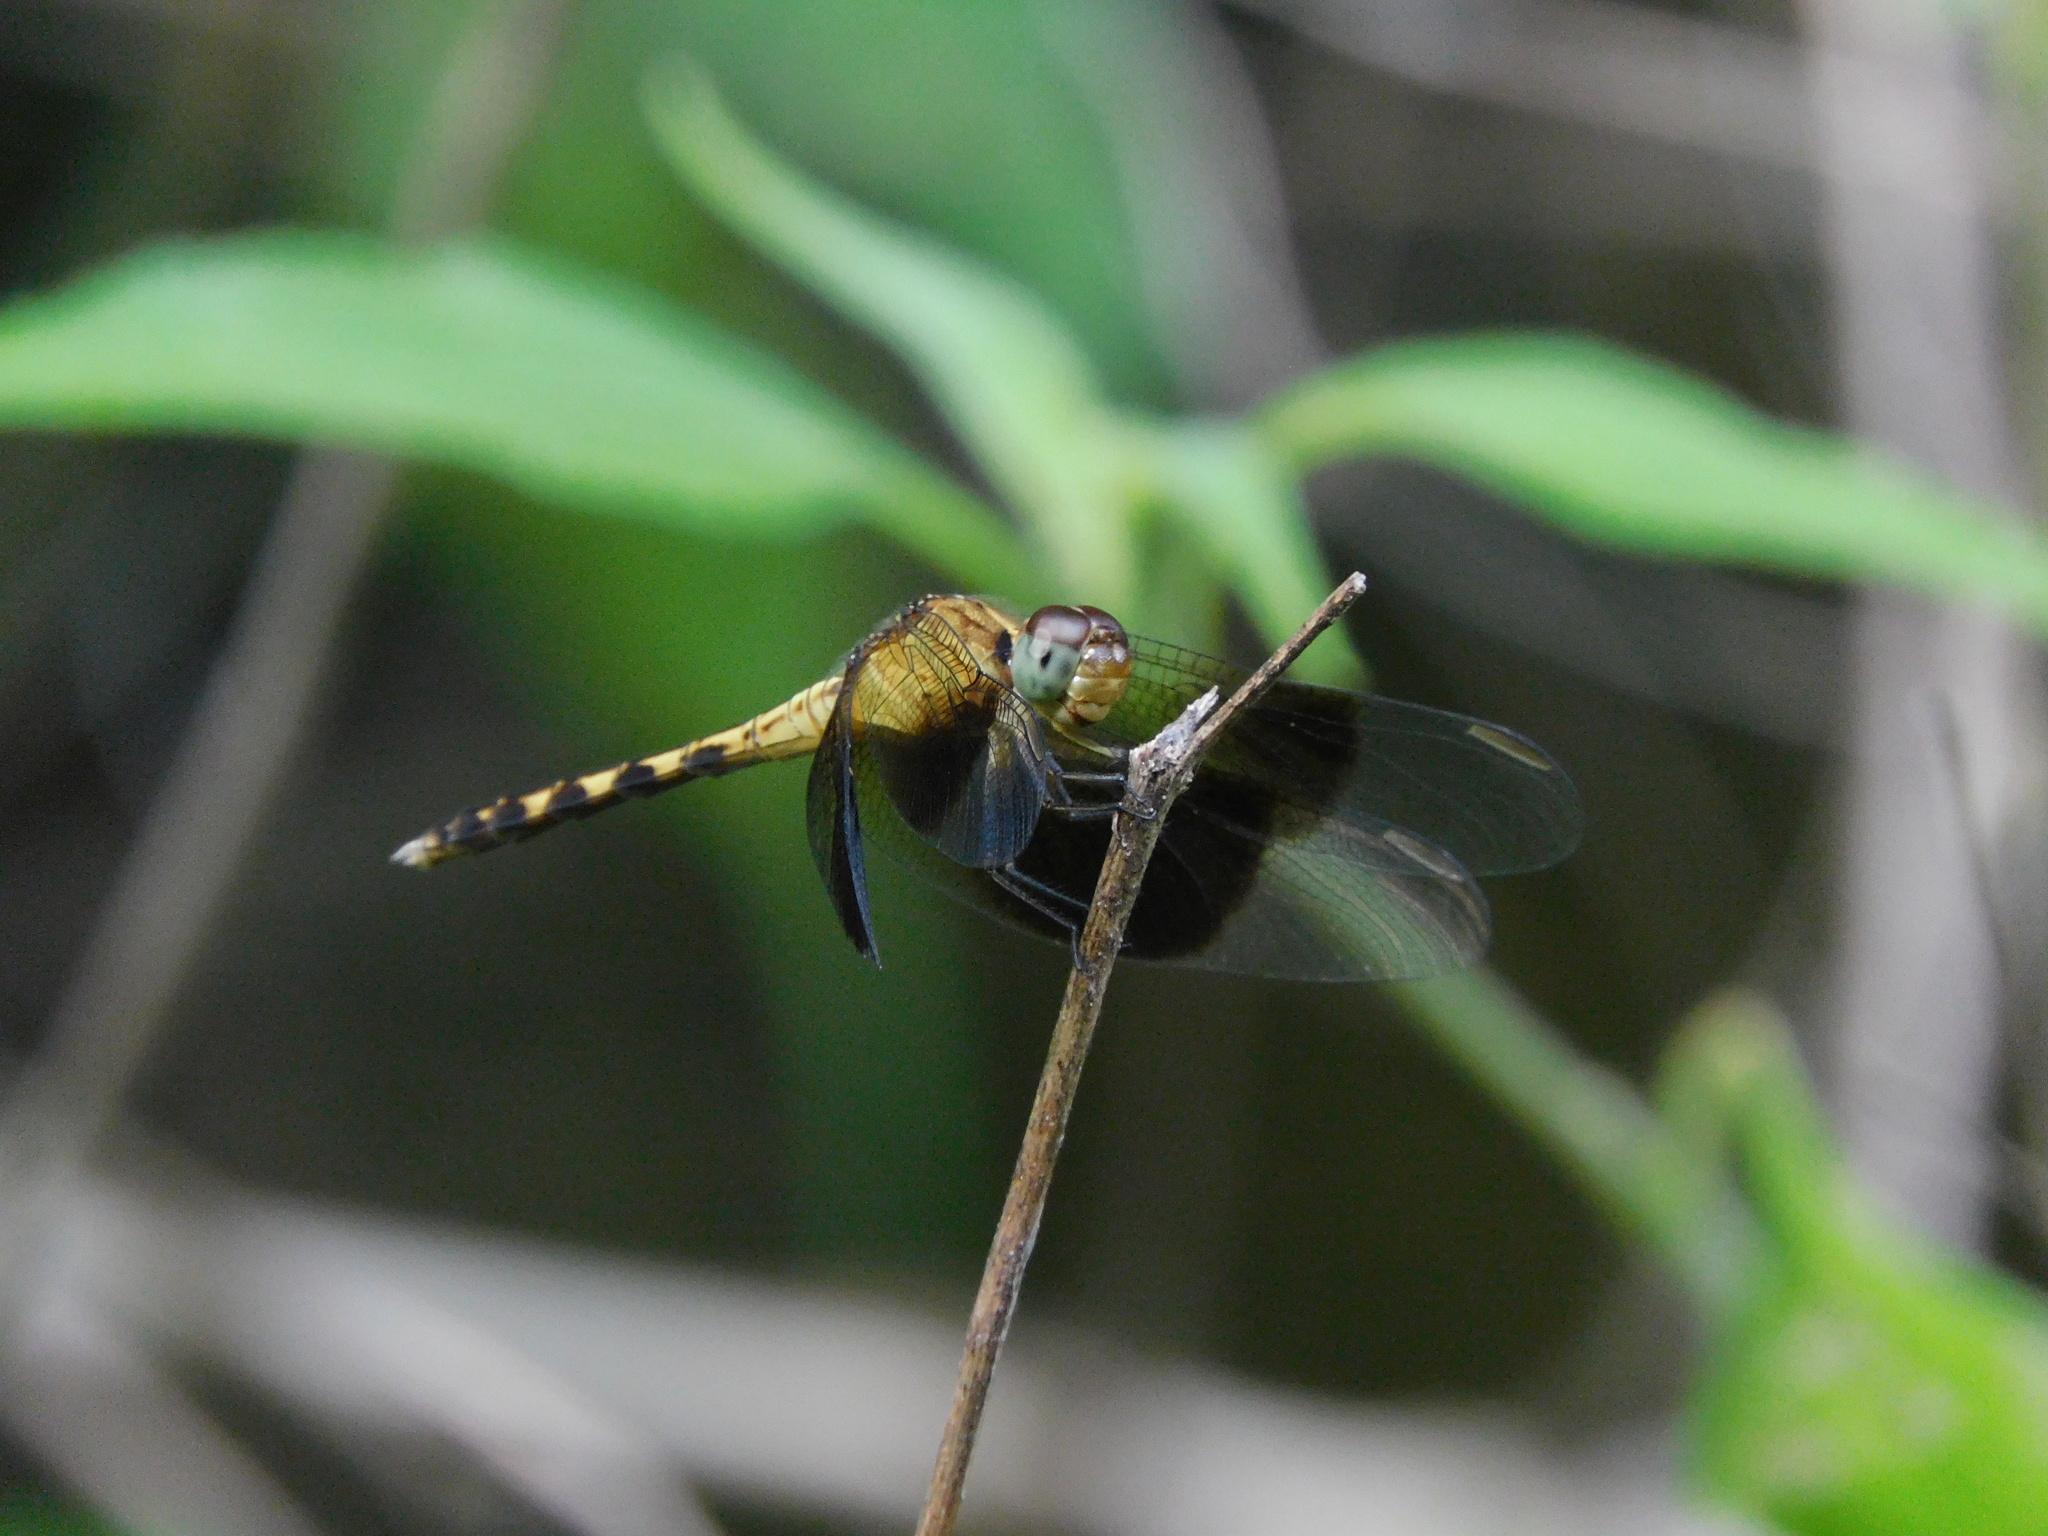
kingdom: Animalia
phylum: Arthropoda
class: Insecta
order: Odonata
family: Libellulidae
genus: Erythrodiplax
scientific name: Erythrodiplax funerea
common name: Black-winged dragonlet
